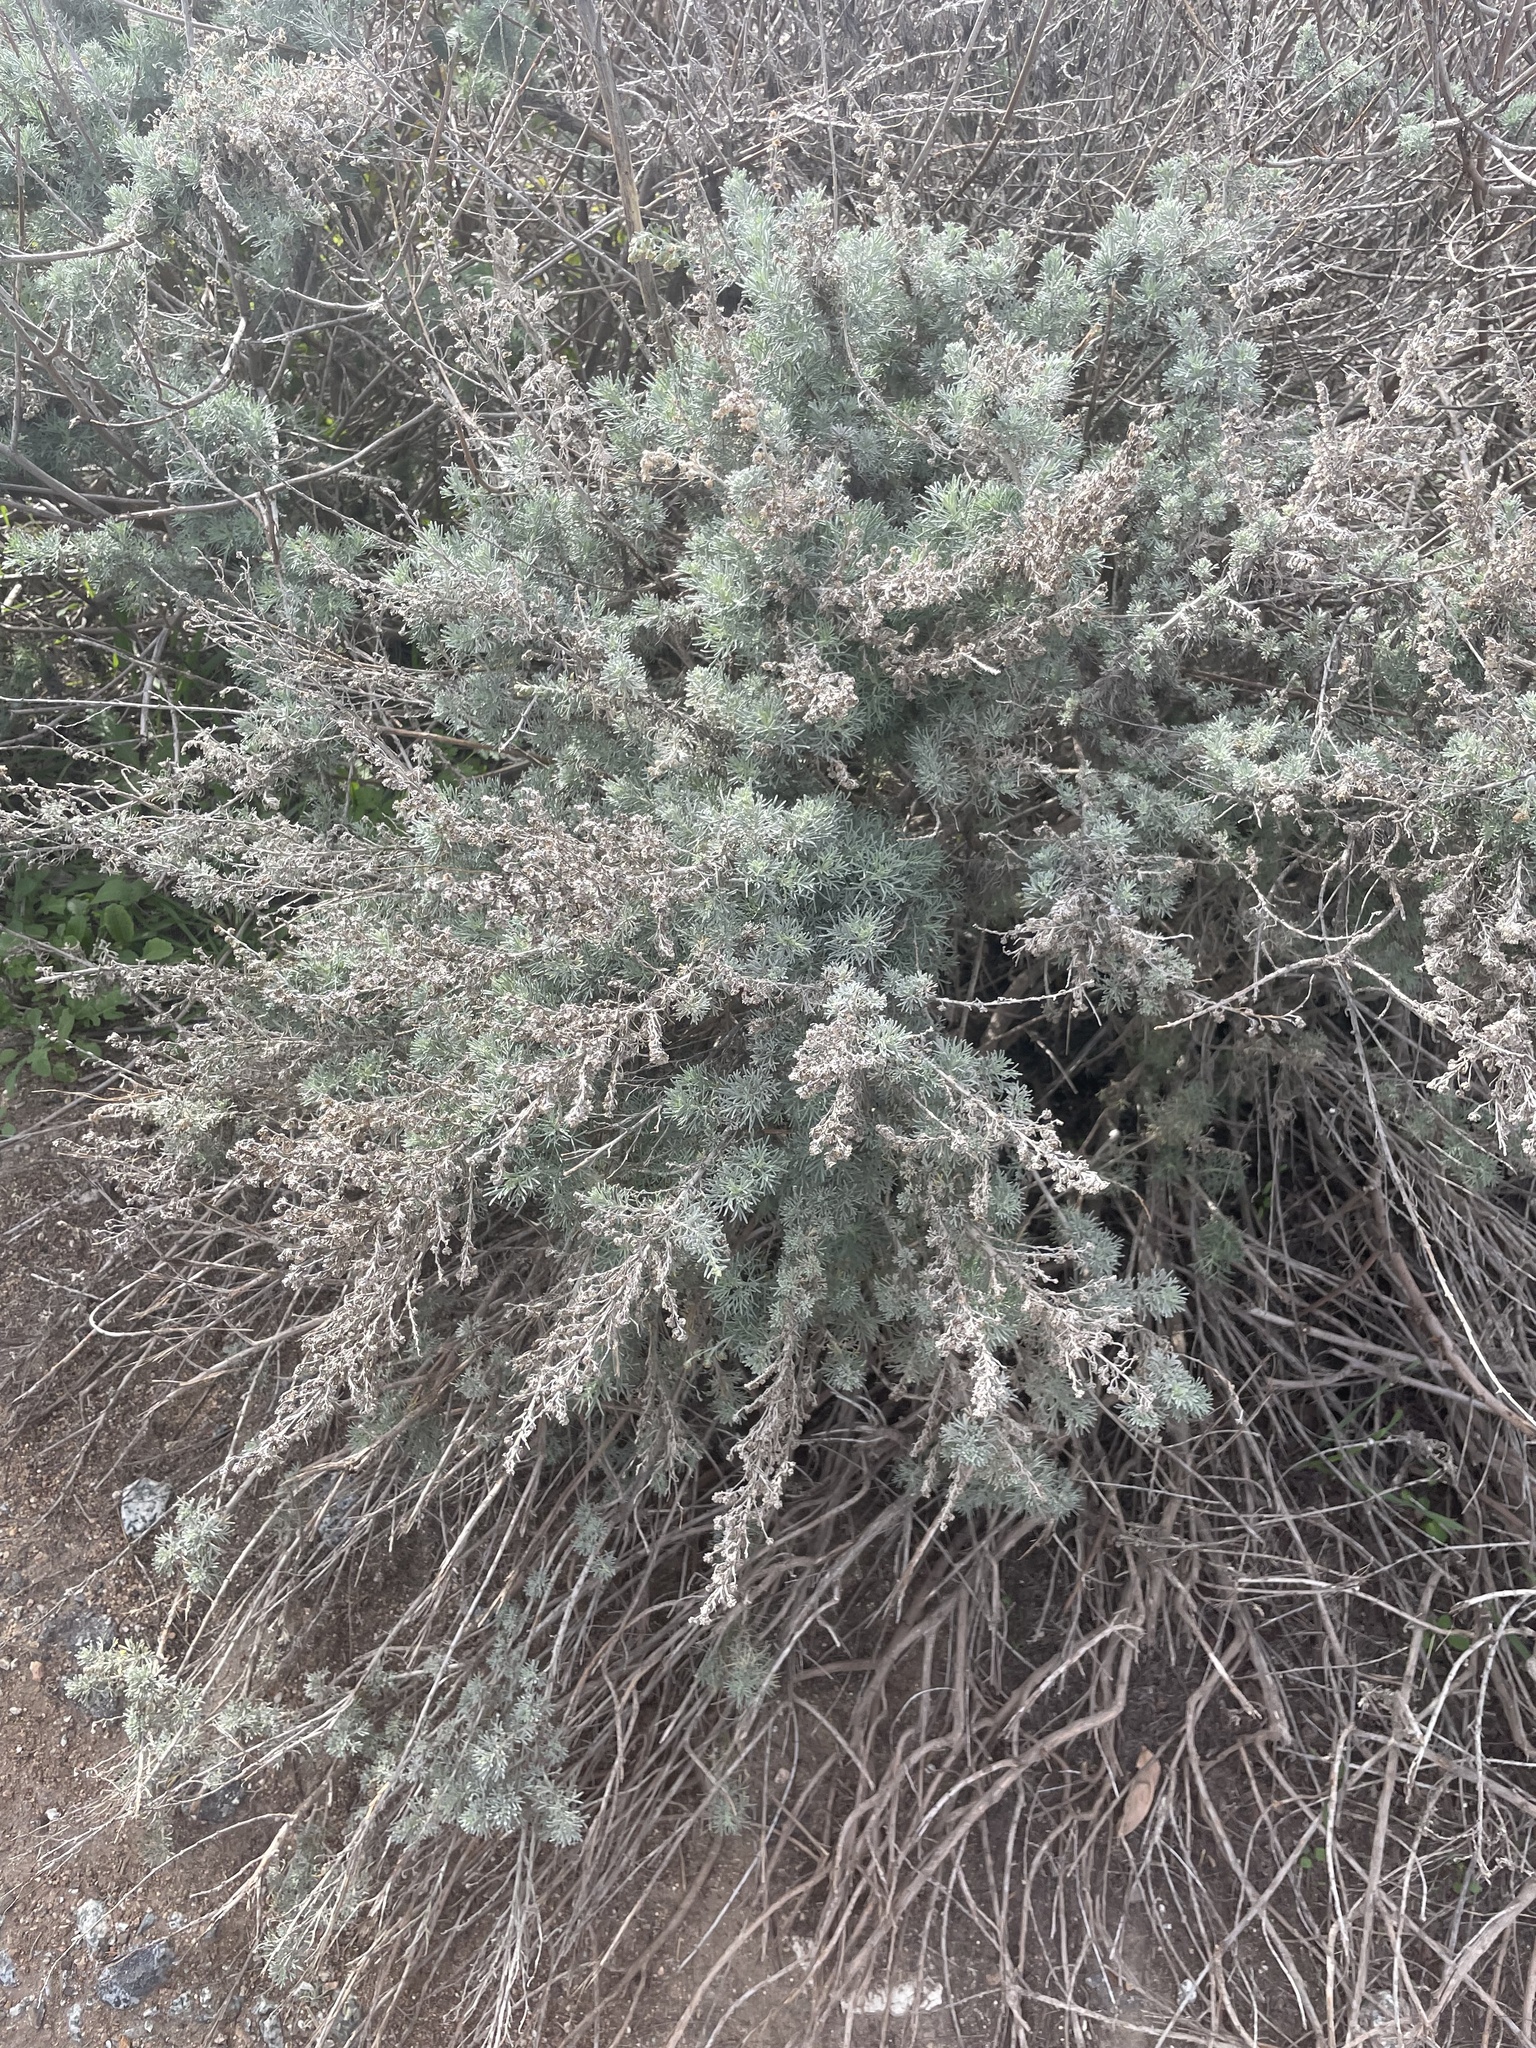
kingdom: Plantae
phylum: Tracheophyta
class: Magnoliopsida
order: Asterales
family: Asteraceae
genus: Artemisia
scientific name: Artemisia californica
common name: California sagebrush
